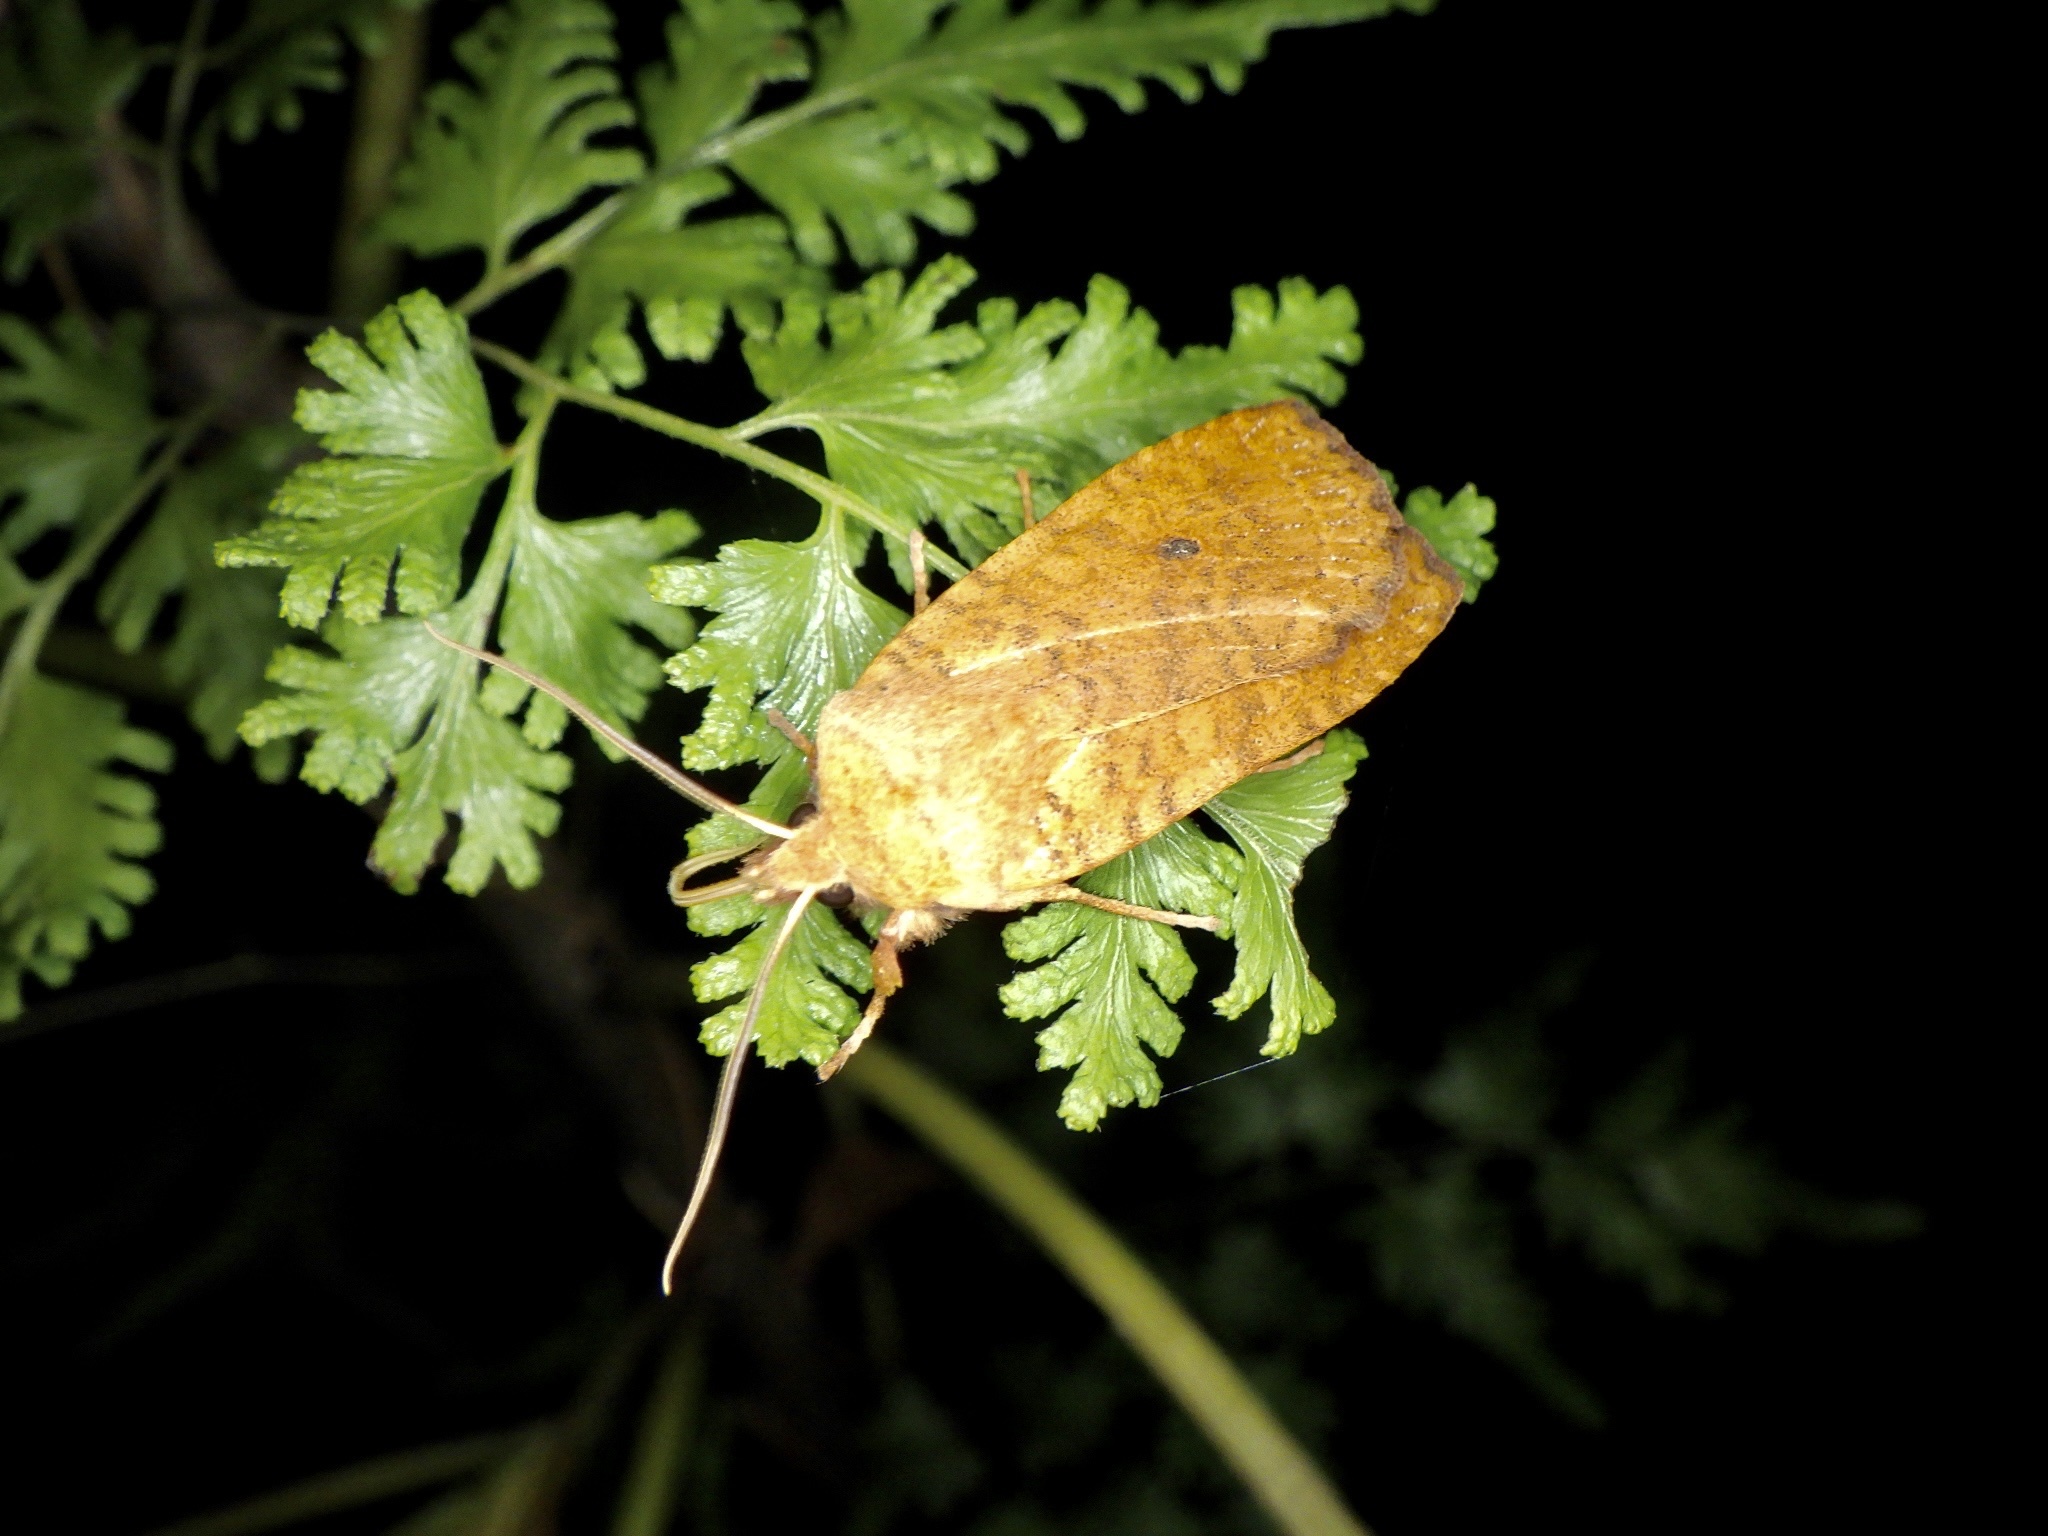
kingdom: Animalia
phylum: Arthropoda
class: Insecta
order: Lepidoptera
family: Noctuidae
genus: Conistra
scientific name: Conistra albipuncta
